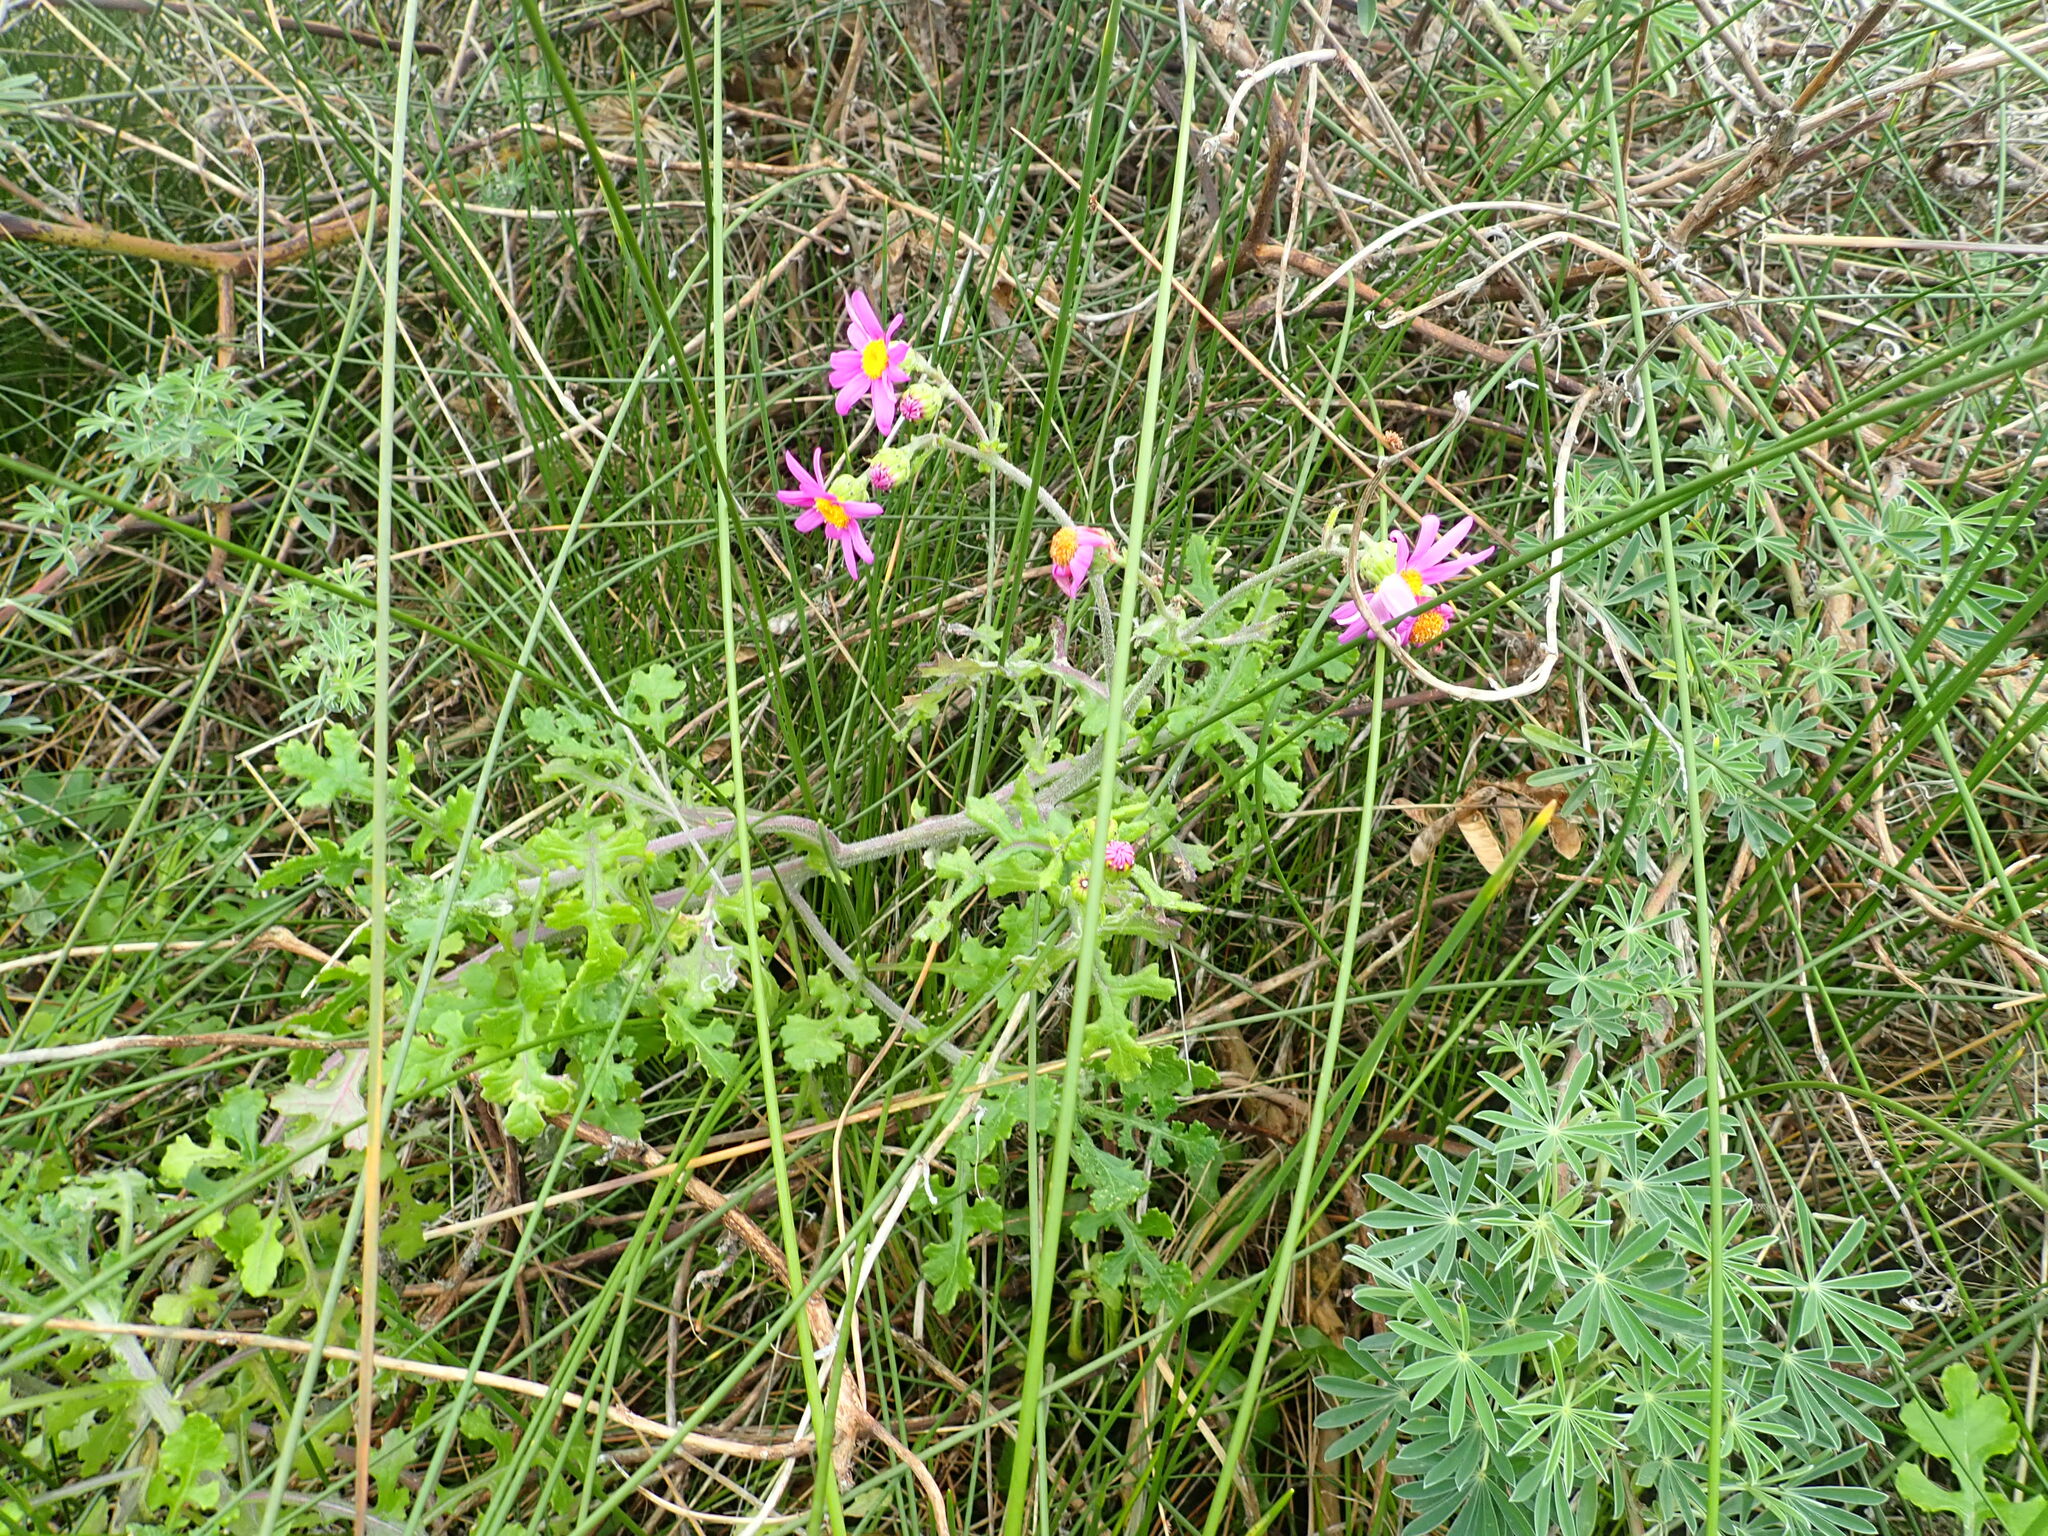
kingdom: Plantae
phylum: Tracheophyta
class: Magnoliopsida
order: Asterales
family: Asteraceae
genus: Senecio
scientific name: Senecio elegans
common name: Purple groundsel
